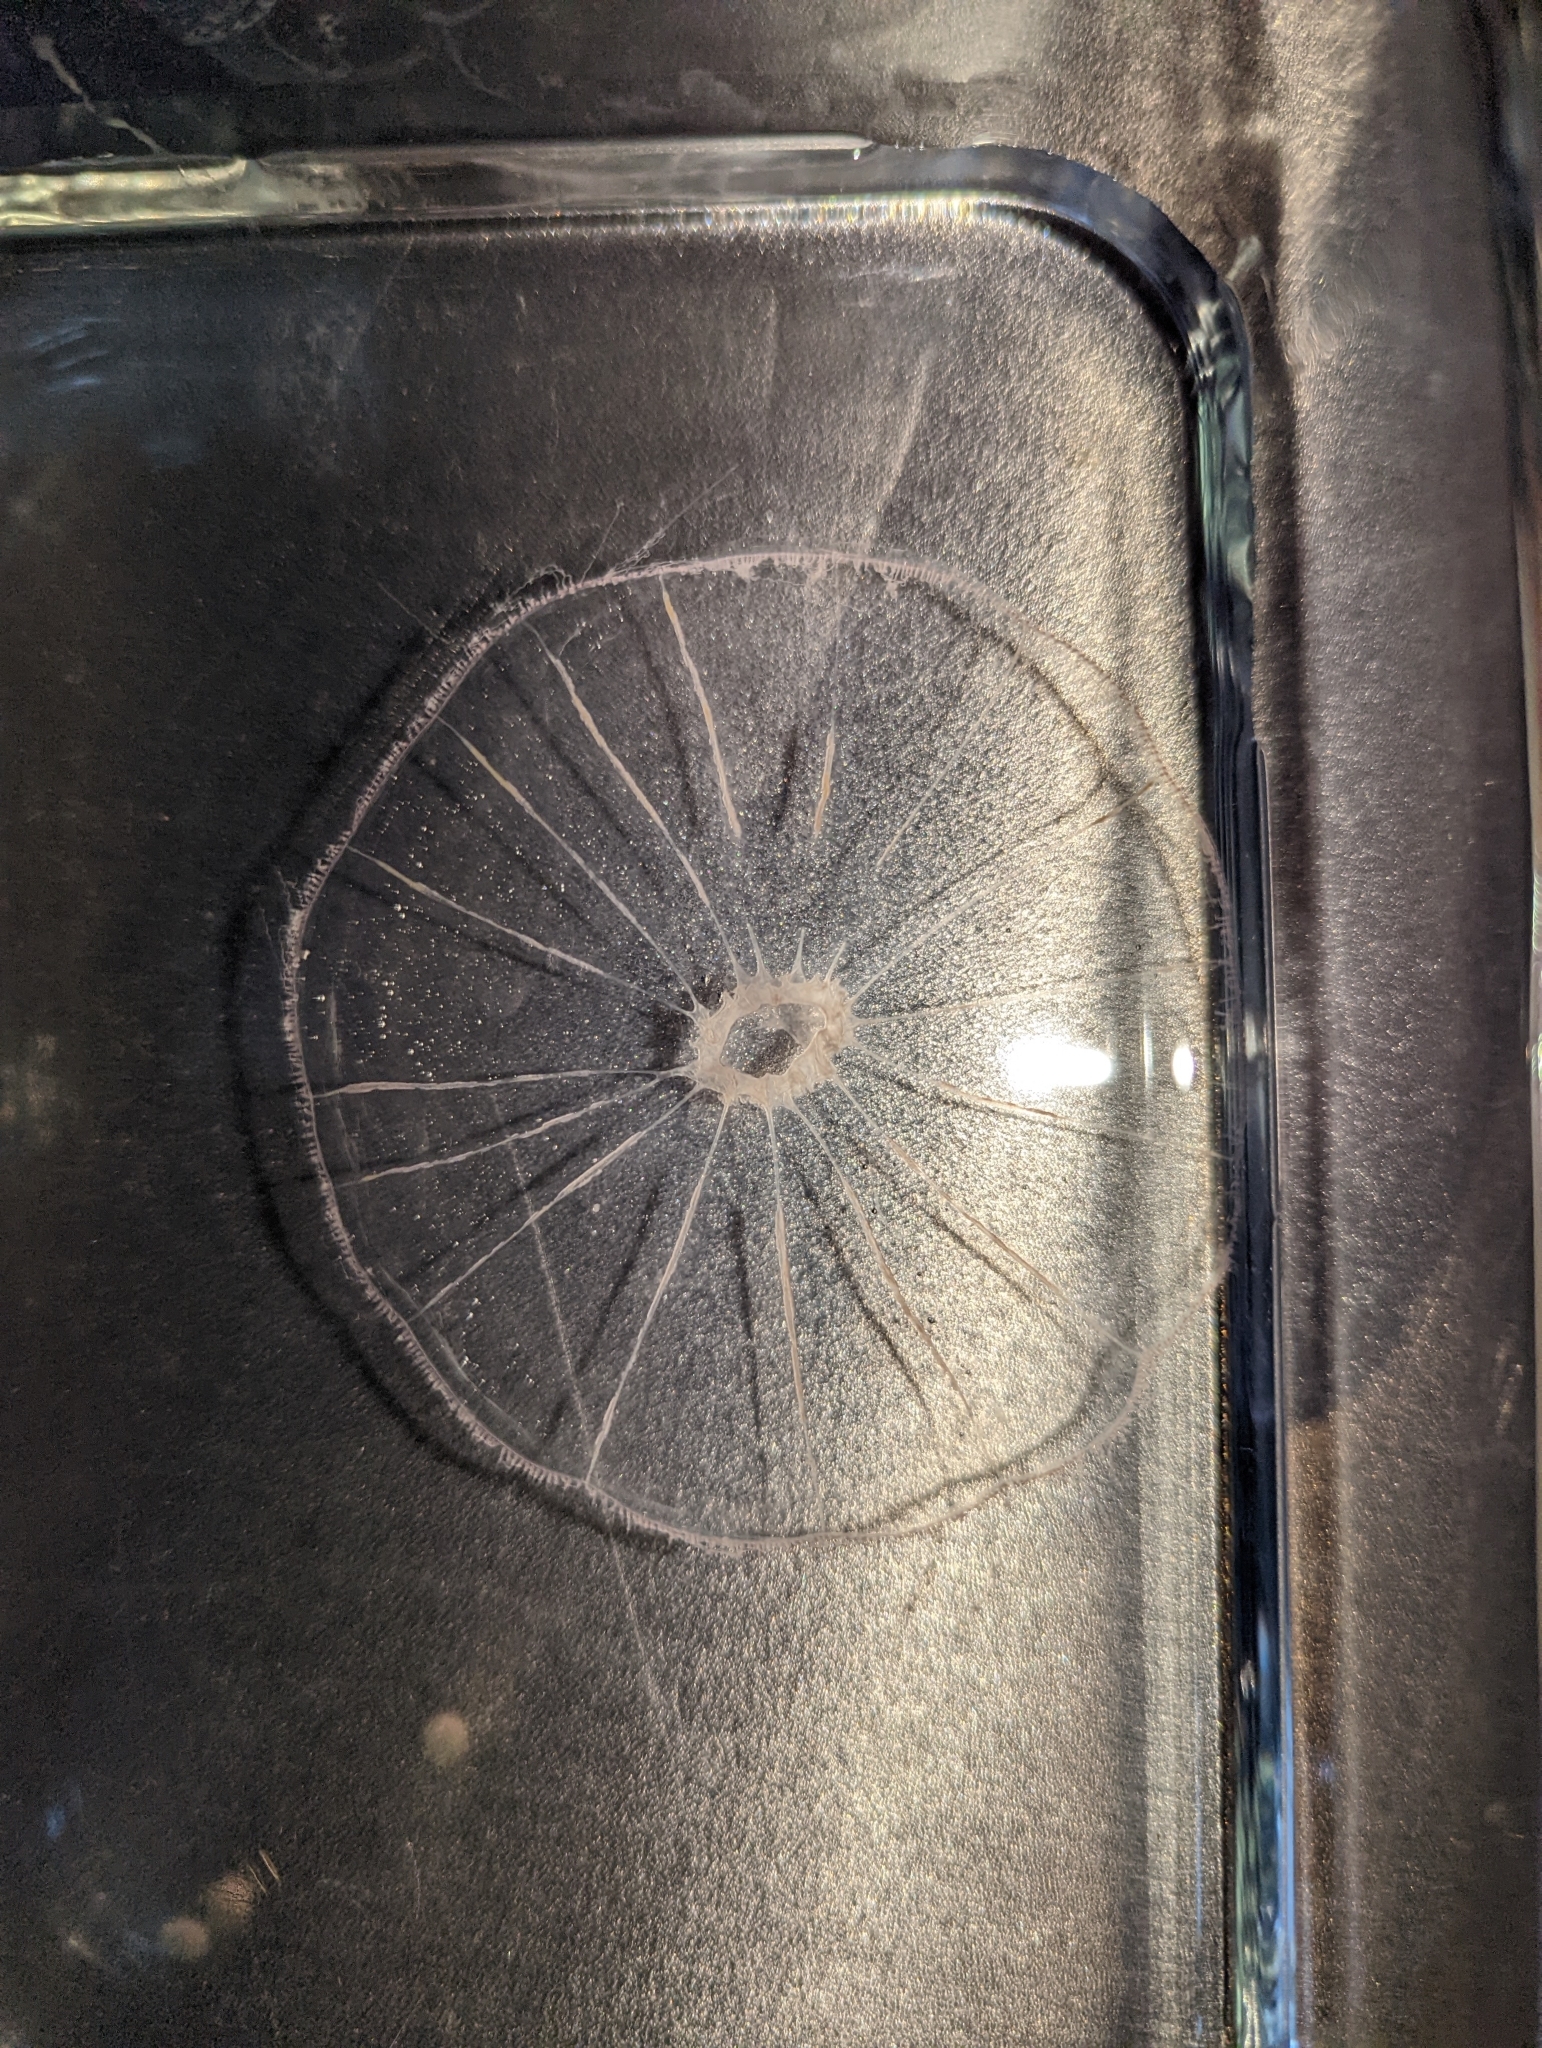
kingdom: Animalia
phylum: Cnidaria
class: Hydrozoa
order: Leptothecata
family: Mitrocomidae
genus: Halopsis
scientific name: Halopsis ocellata
